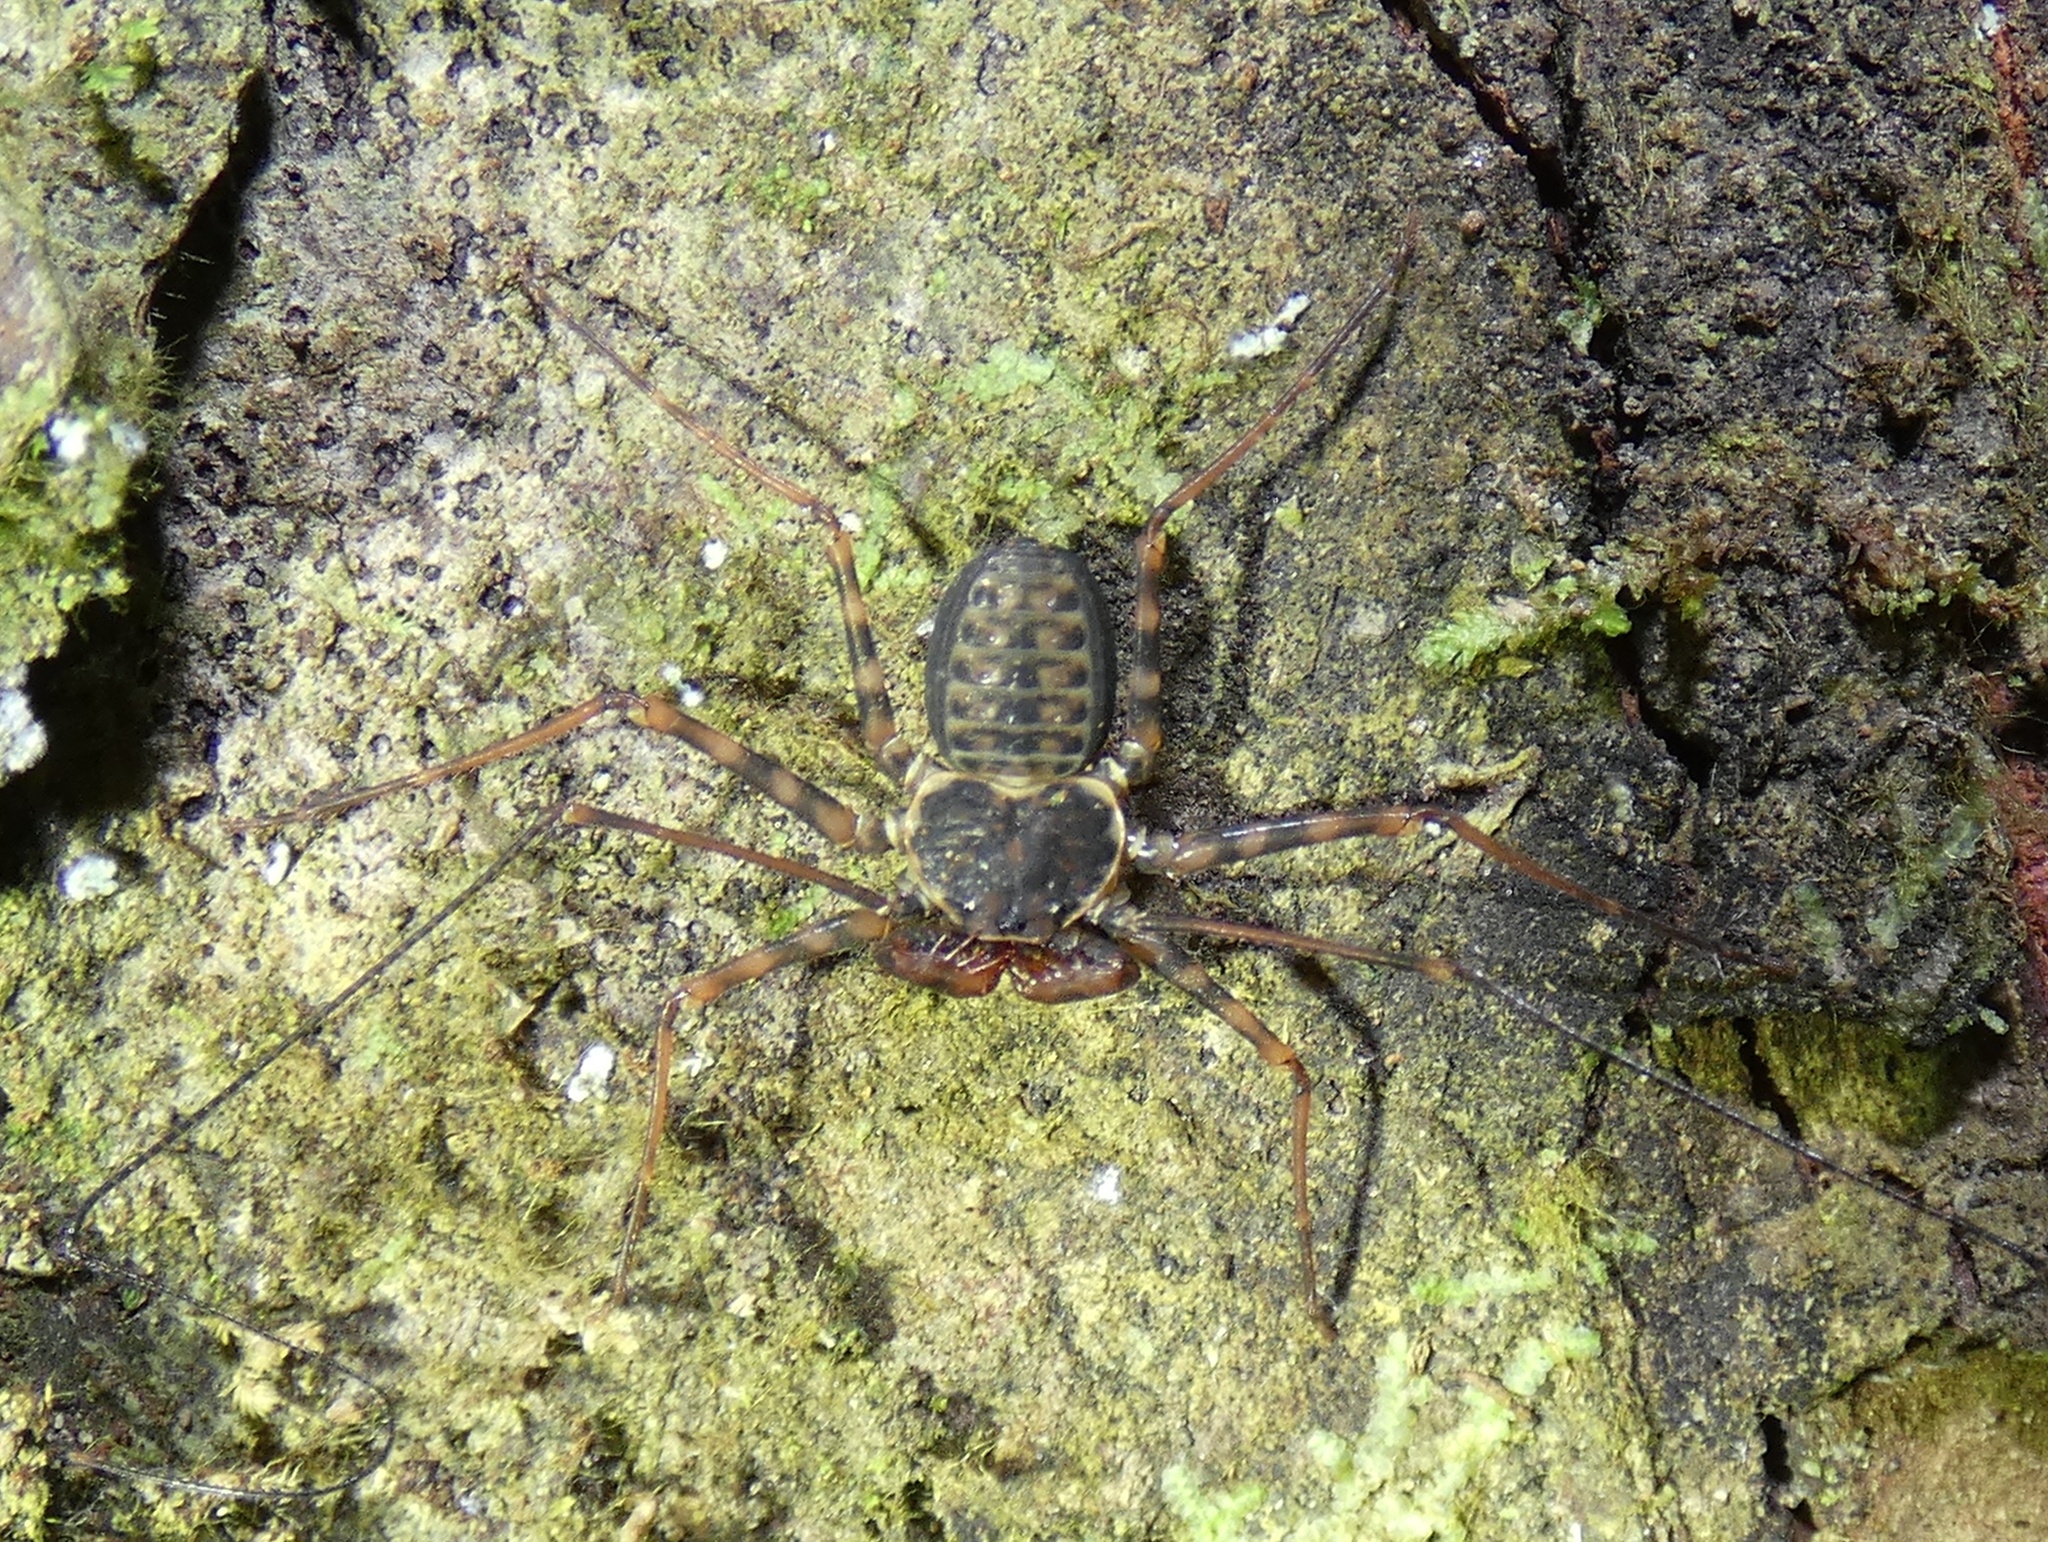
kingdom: Animalia
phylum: Arthropoda
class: Arachnida
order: Amblypygi
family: Phrynidae
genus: Phrynus
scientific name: Phrynus operculatus
